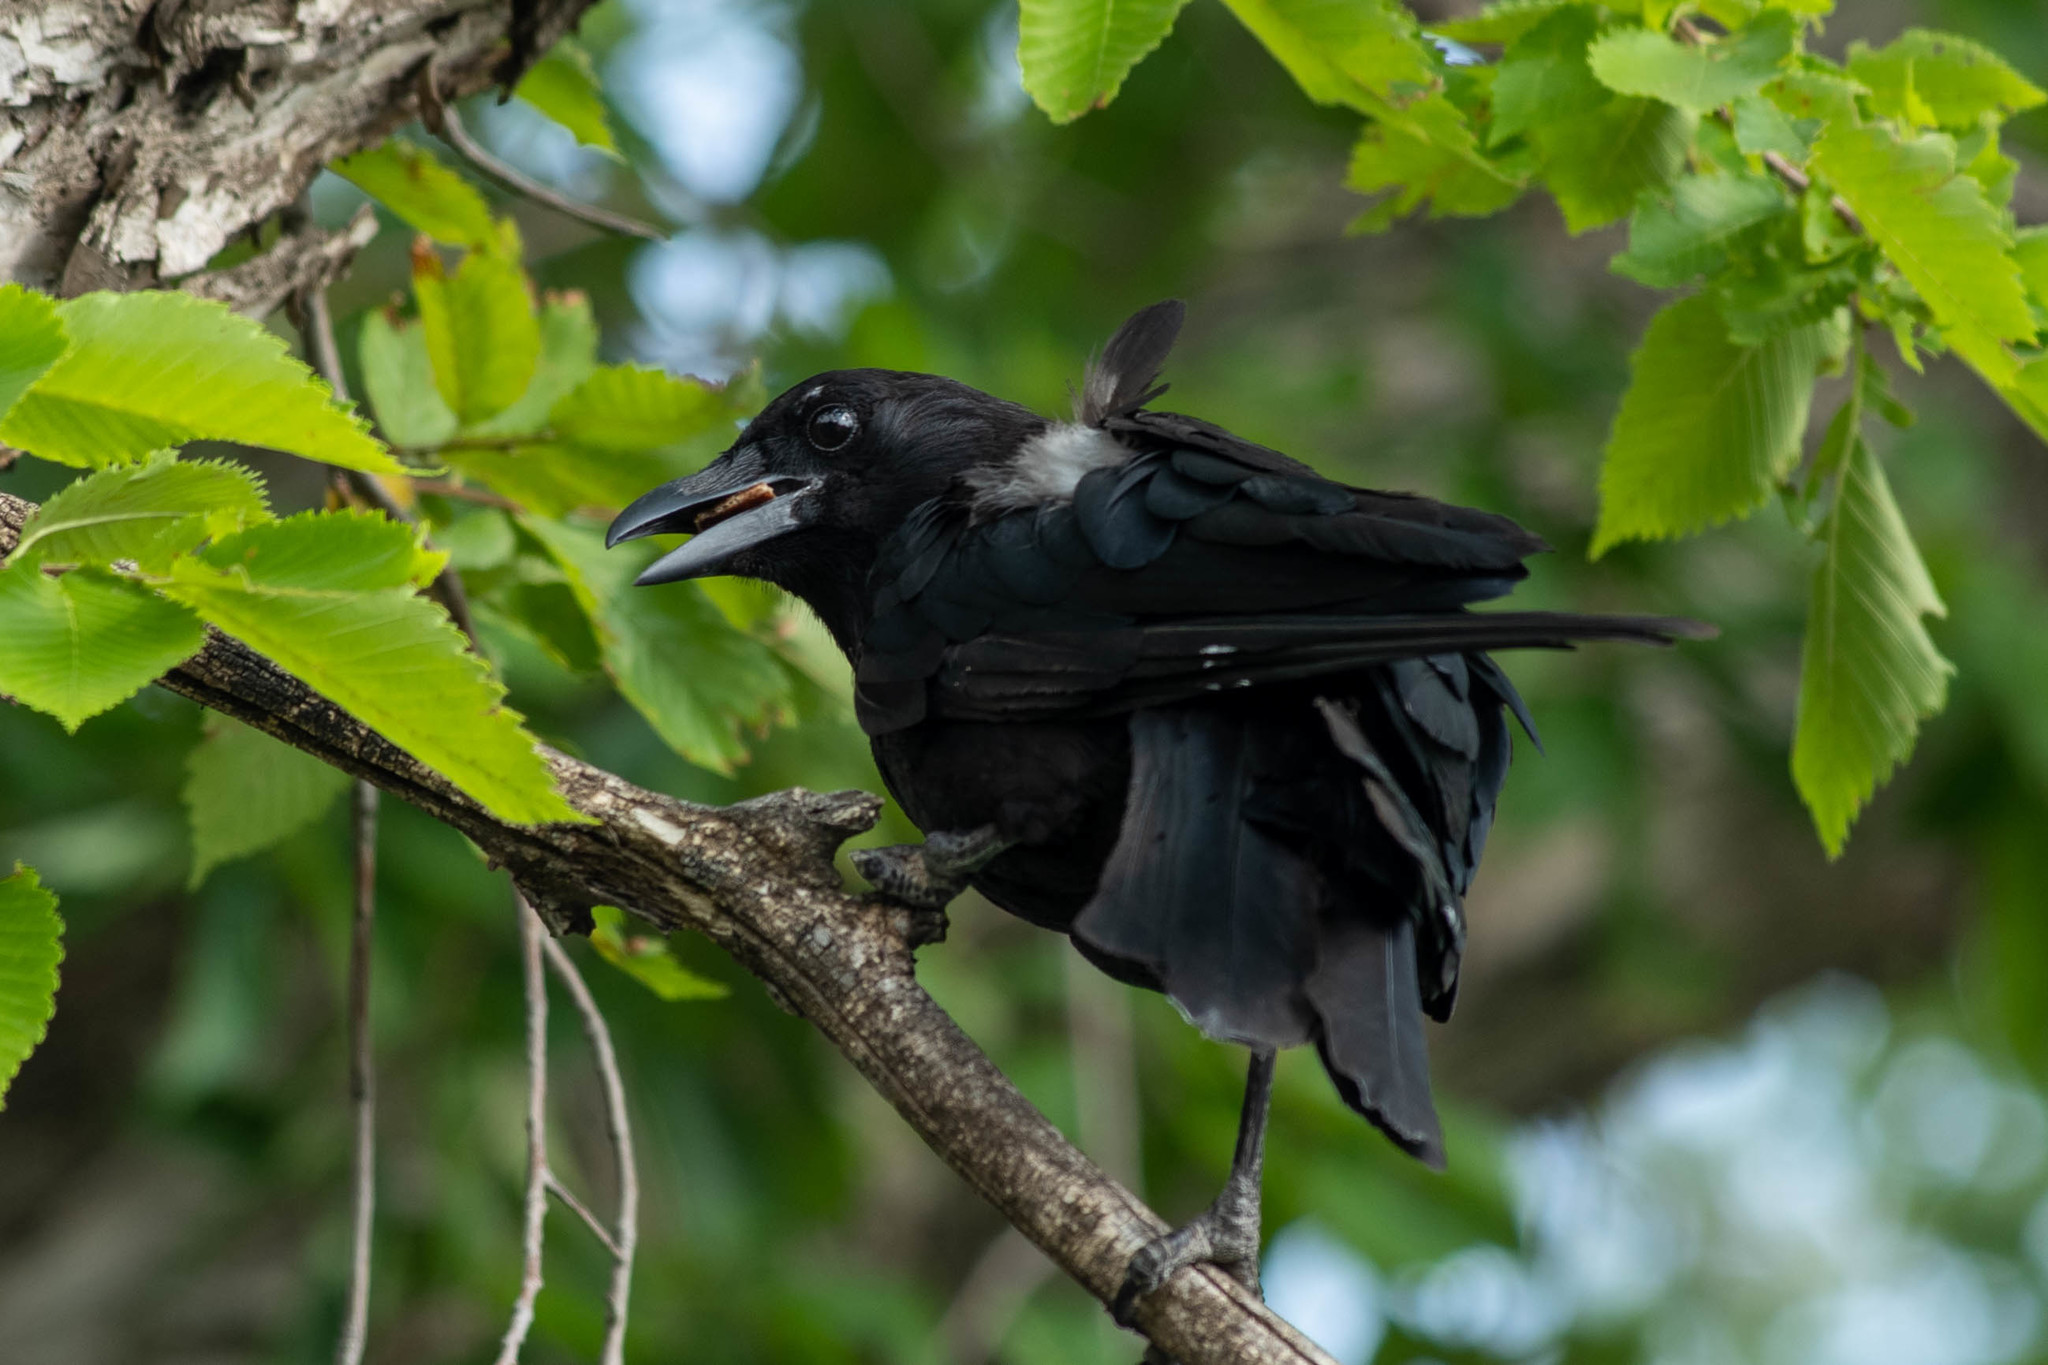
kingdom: Animalia
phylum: Chordata
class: Aves
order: Passeriformes
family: Corvidae
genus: Corvus
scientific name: Corvus brachyrhynchos
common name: American crow
